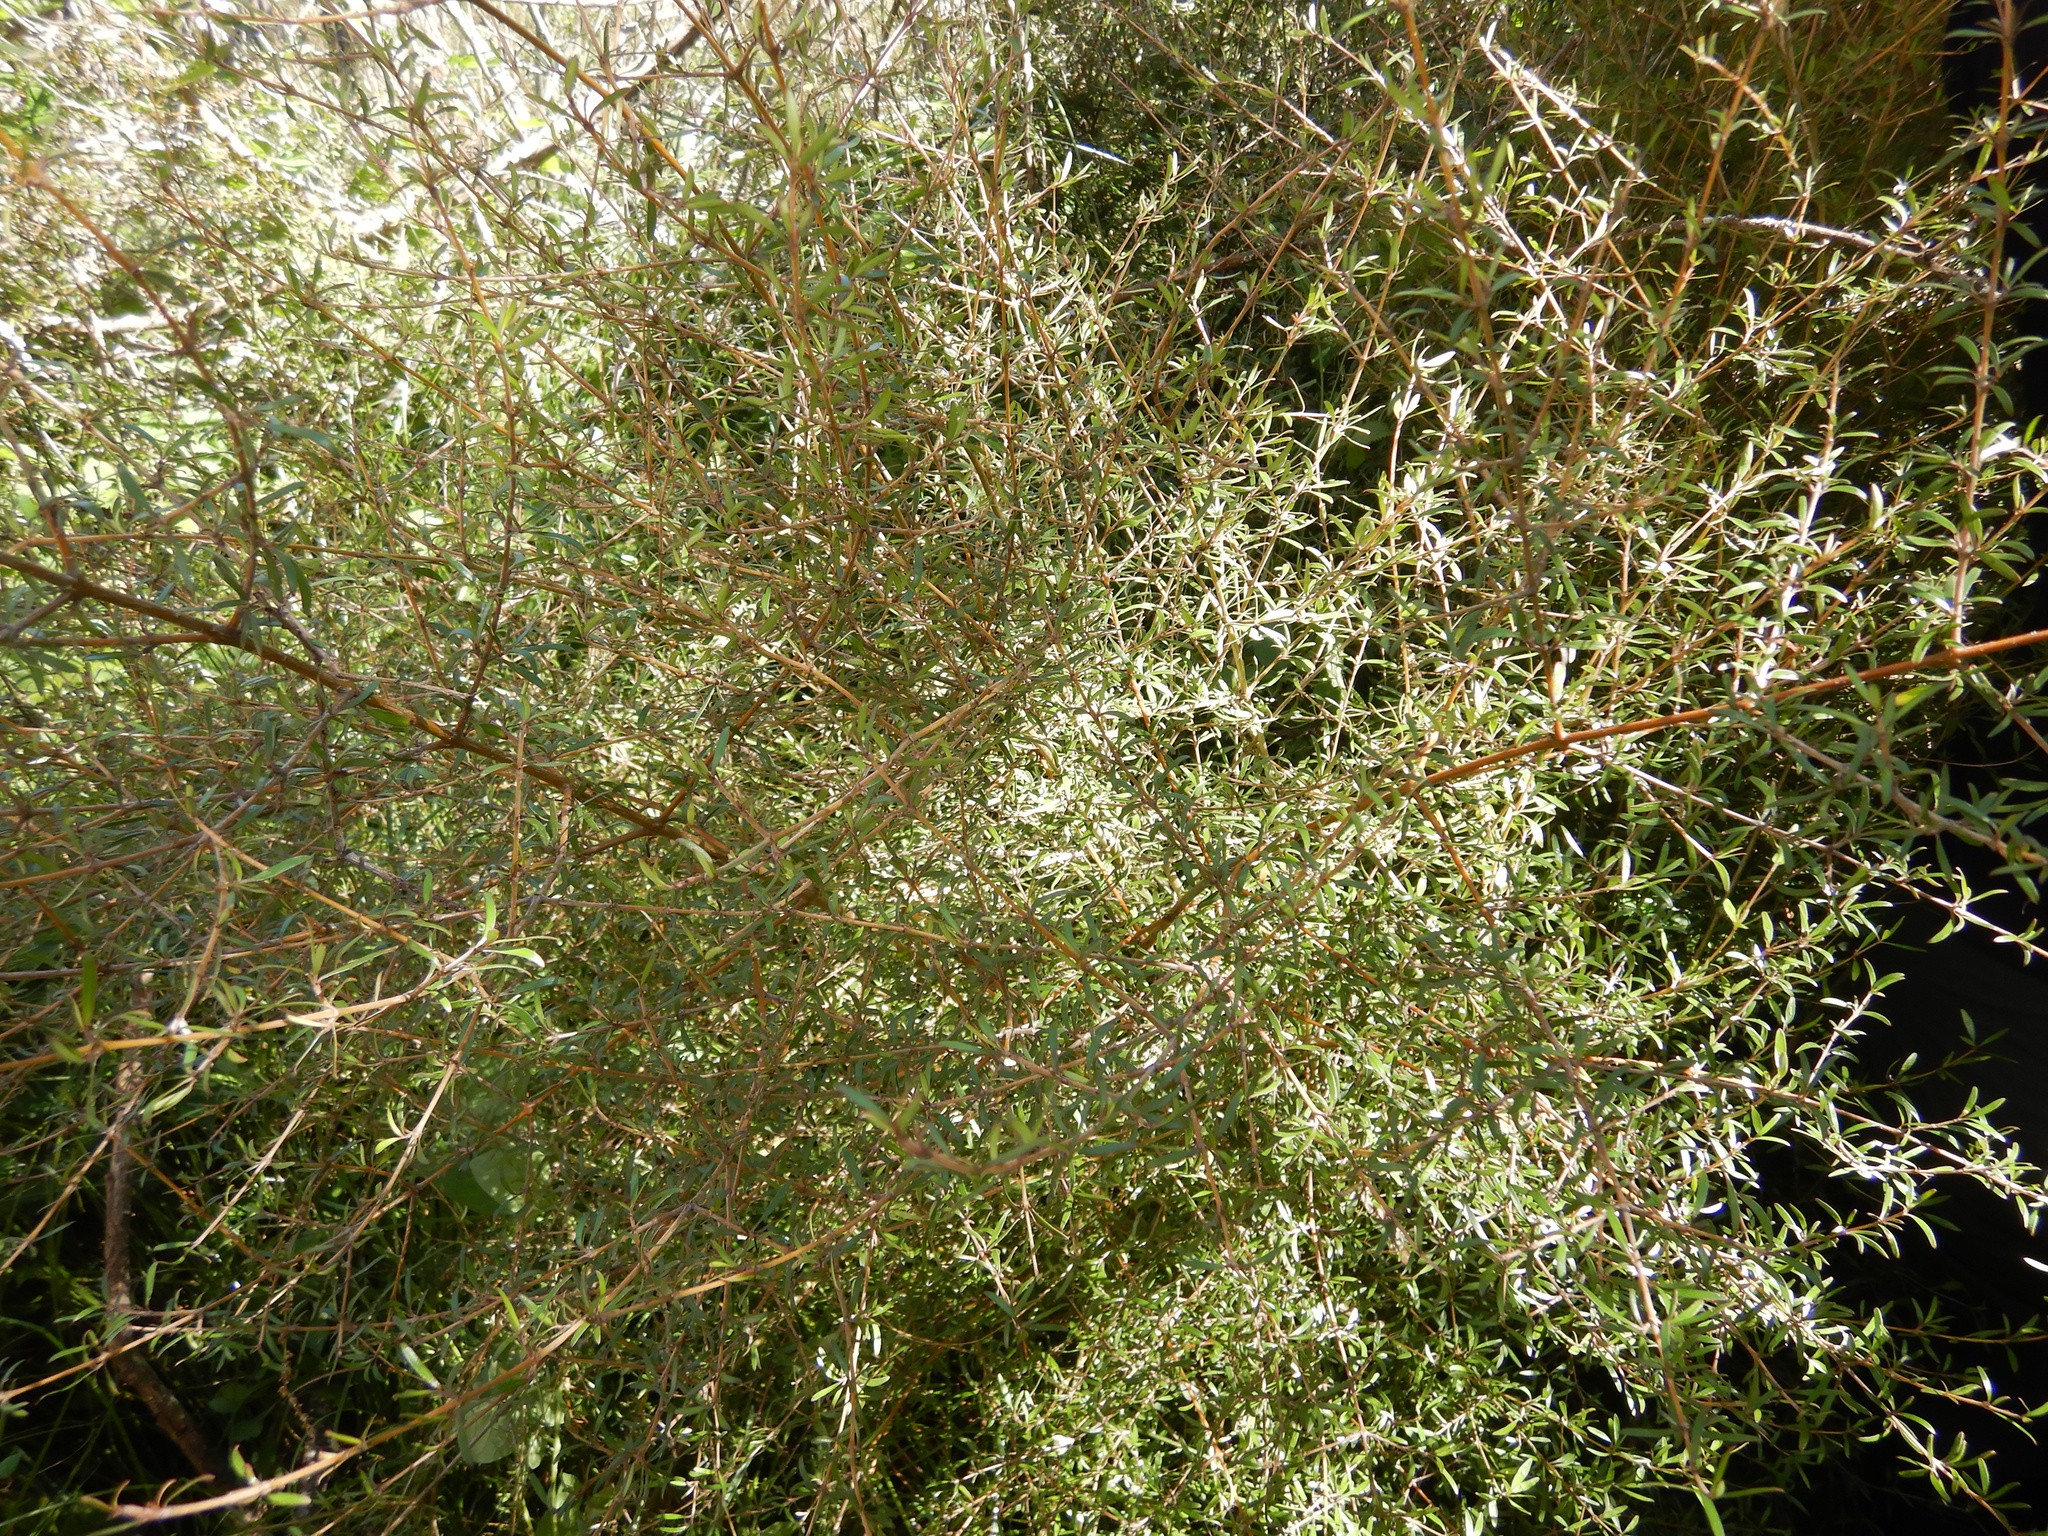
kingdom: Plantae
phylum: Tracheophyta
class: Magnoliopsida
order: Gentianales
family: Rubiaceae
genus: Coprosma
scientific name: Coprosma propinqua
